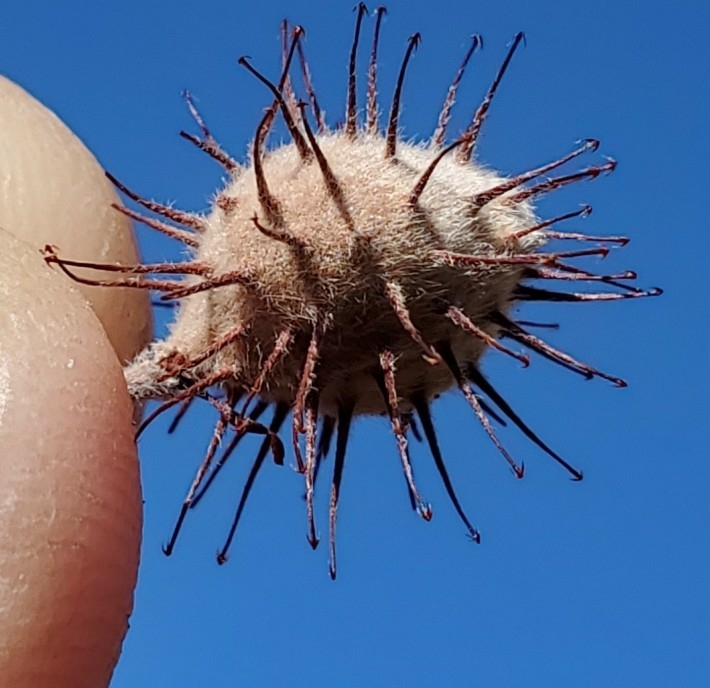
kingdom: Plantae
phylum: Tracheophyta
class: Magnoliopsida
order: Zygophyllales
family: Krameriaceae
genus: Krameria
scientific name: Krameria bicolor
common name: White ratany
